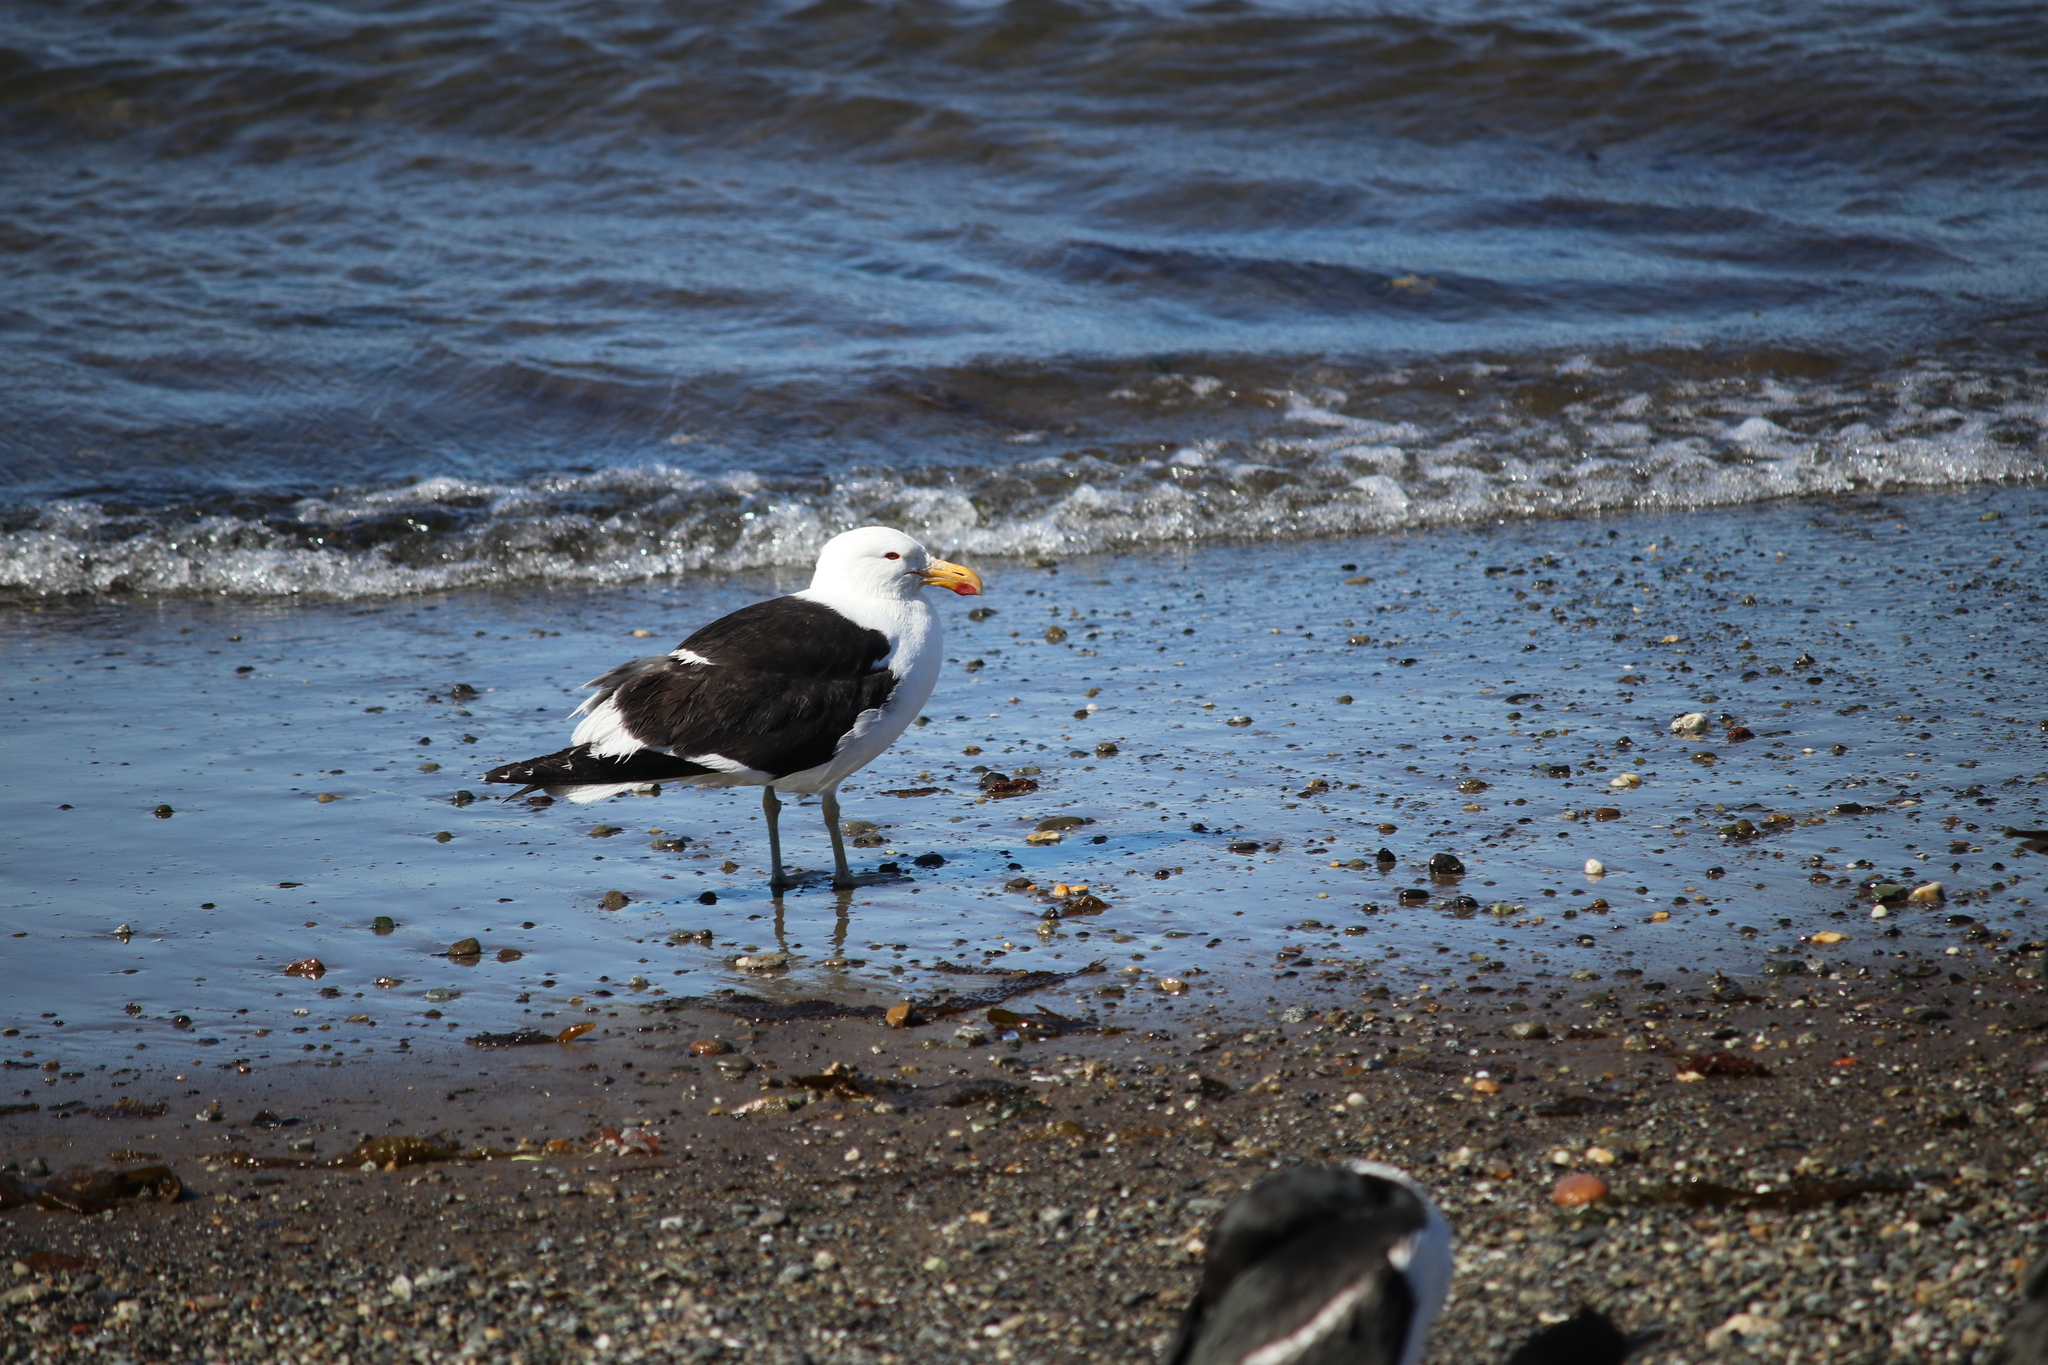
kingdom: Animalia
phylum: Chordata
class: Aves
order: Charadriiformes
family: Laridae
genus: Larus
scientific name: Larus dominicanus
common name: Kelp gull
